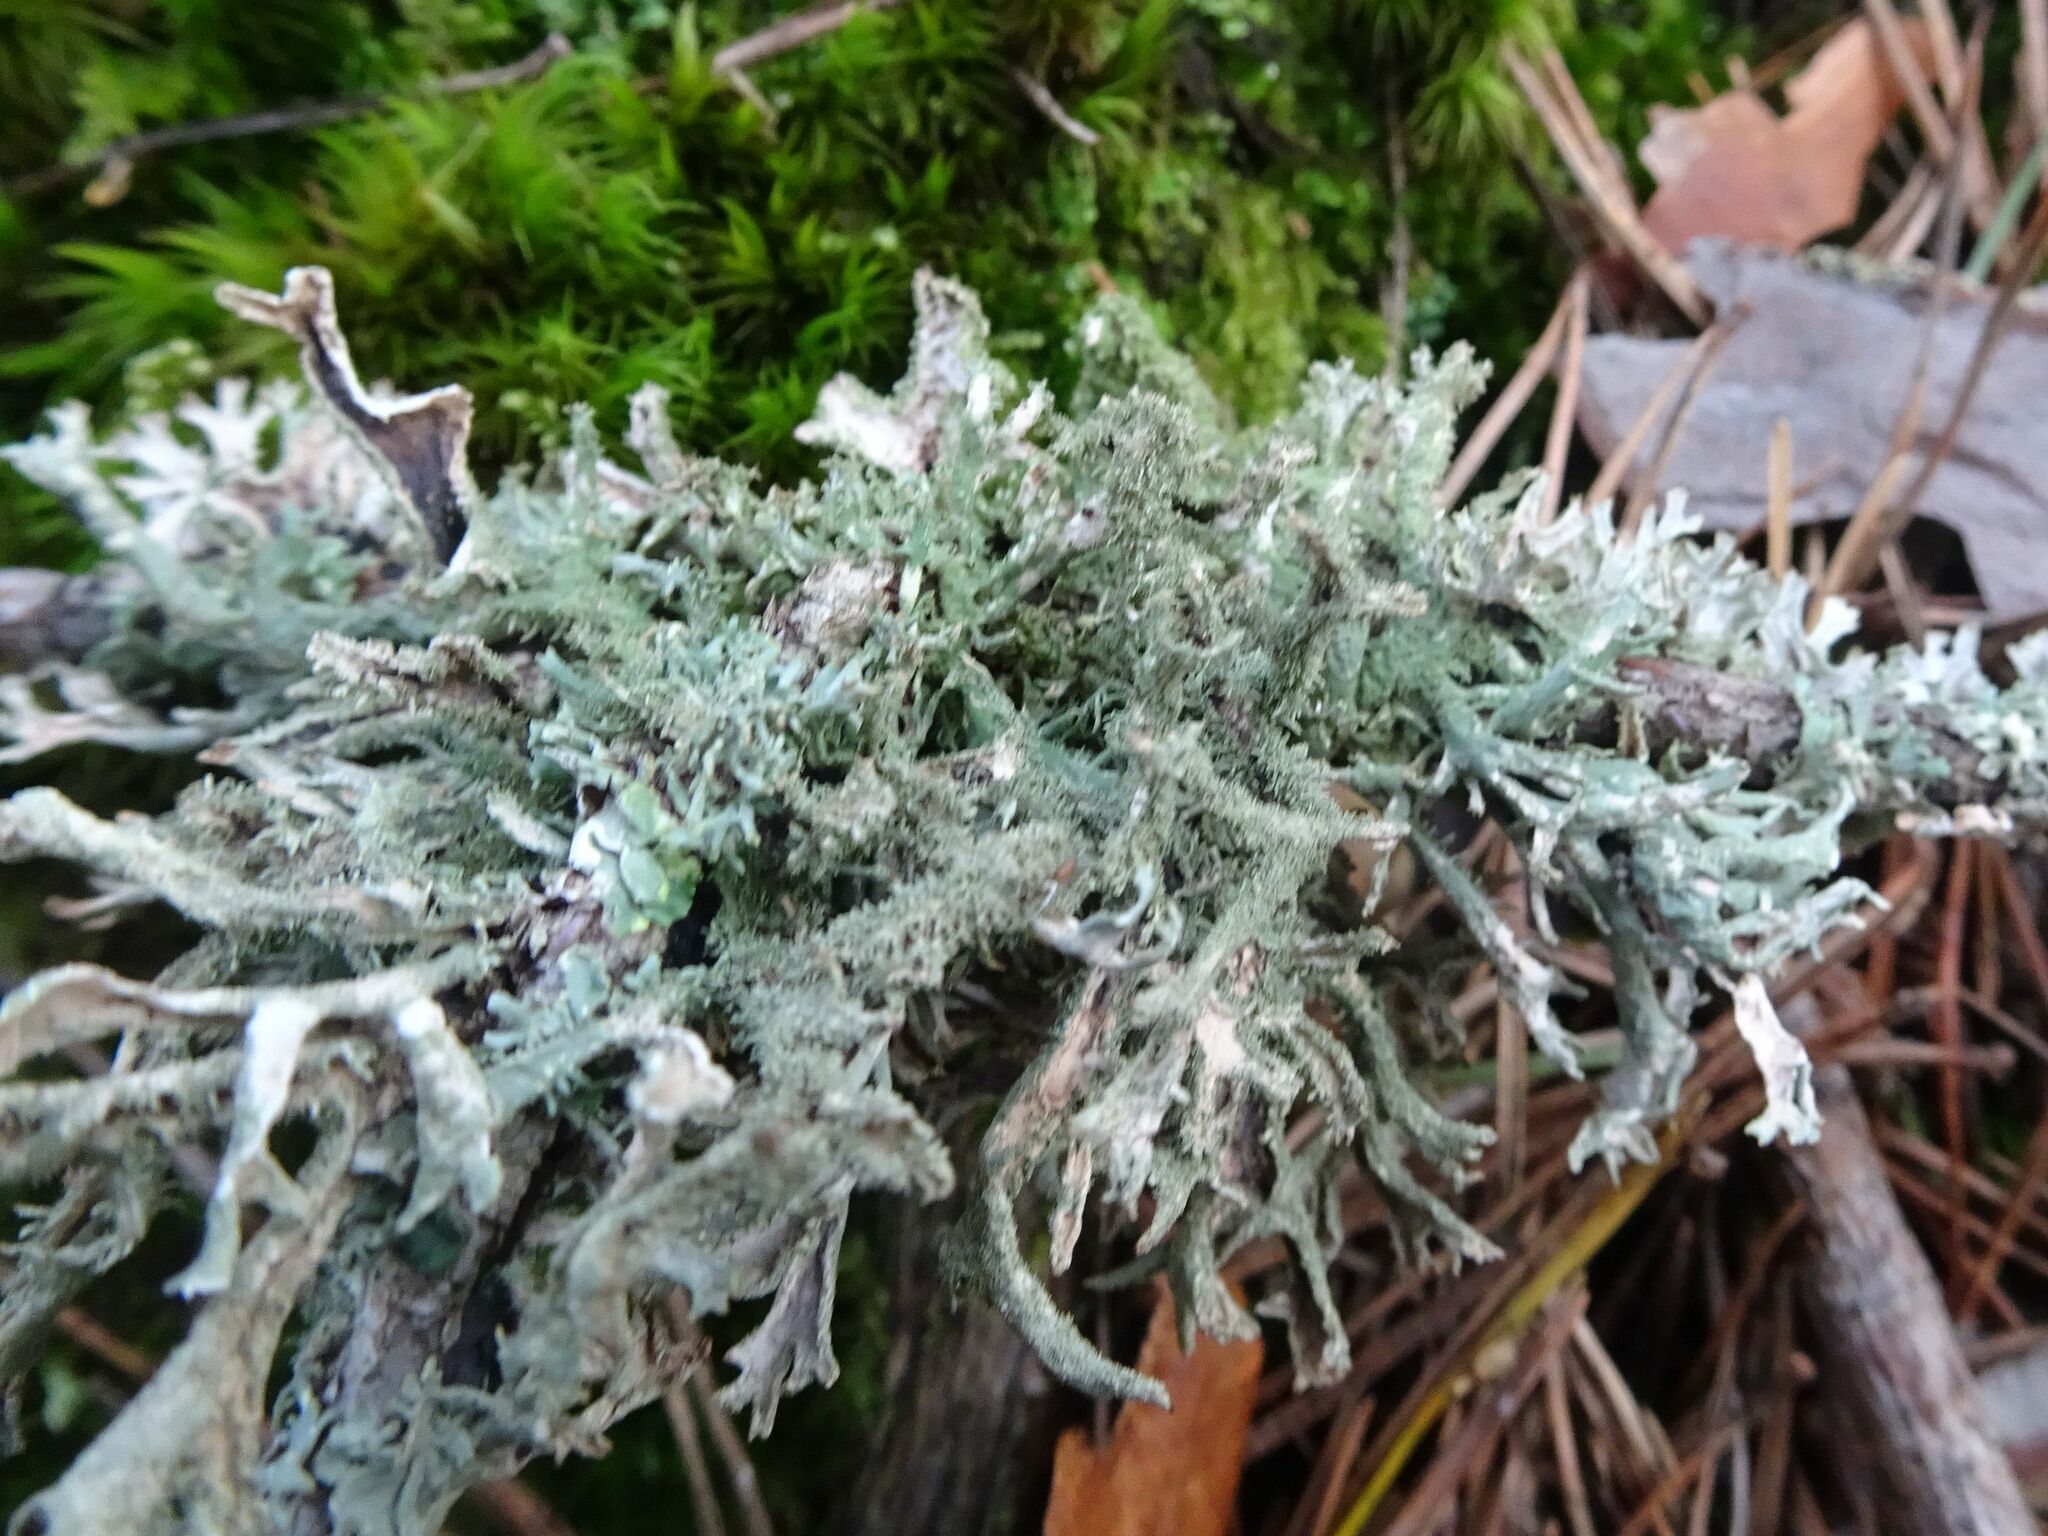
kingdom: Fungi
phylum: Ascomycota
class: Lecanoromycetes
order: Lecanorales
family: Parmeliaceae
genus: Pseudevernia
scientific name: Pseudevernia furfuracea
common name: Tree moss
